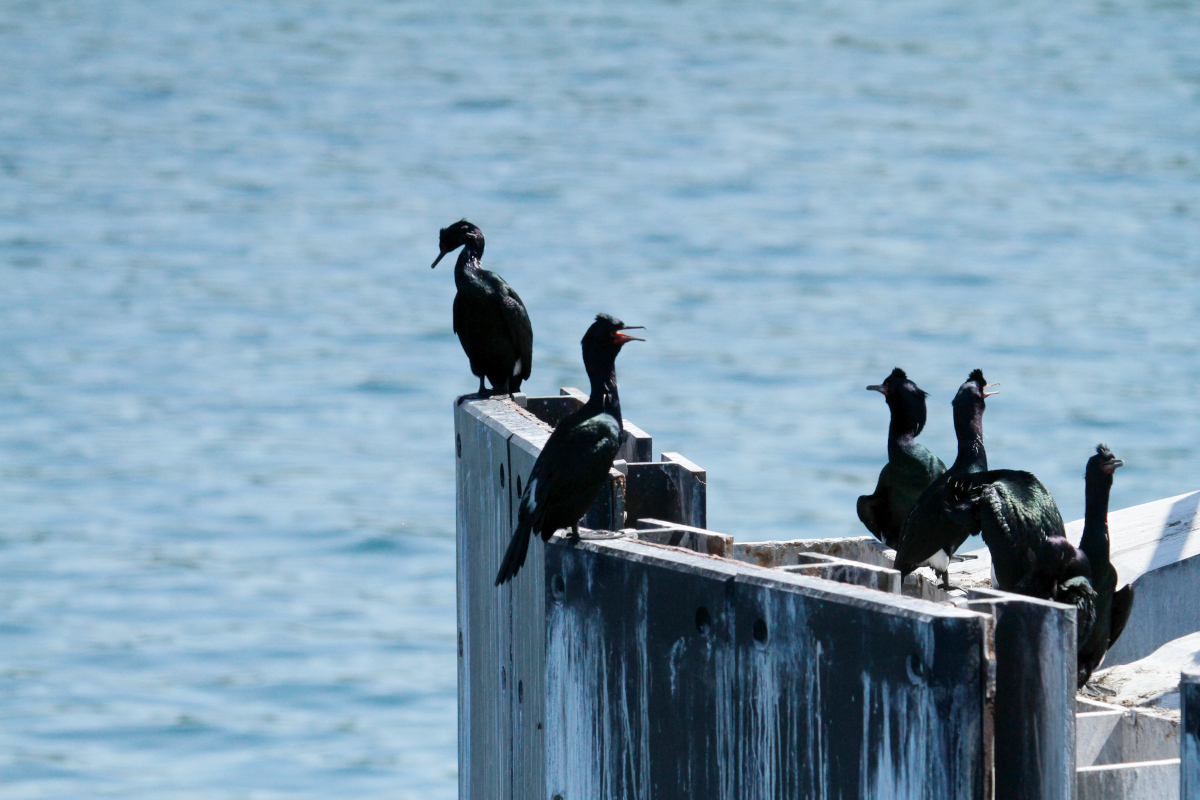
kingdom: Animalia
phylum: Chordata
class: Aves
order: Suliformes
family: Phalacrocoracidae
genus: Phalacrocorax
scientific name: Phalacrocorax pelagicus
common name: Pelagic cormorant
